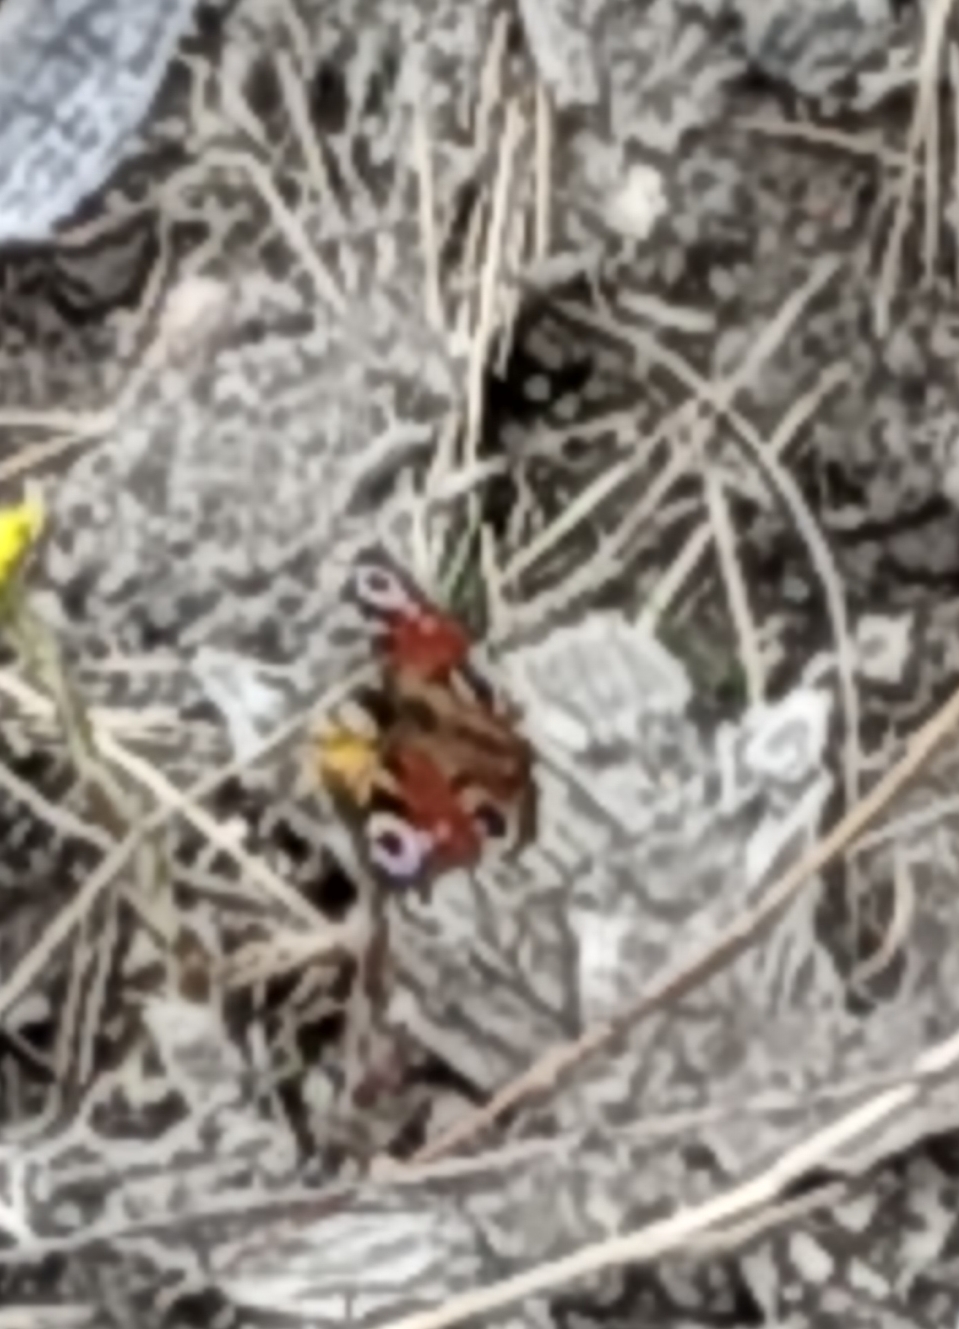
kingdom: Animalia
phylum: Arthropoda
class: Insecta
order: Lepidoptera
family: Nymphalidae
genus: Aglais
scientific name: Aglais io
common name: Peacock
